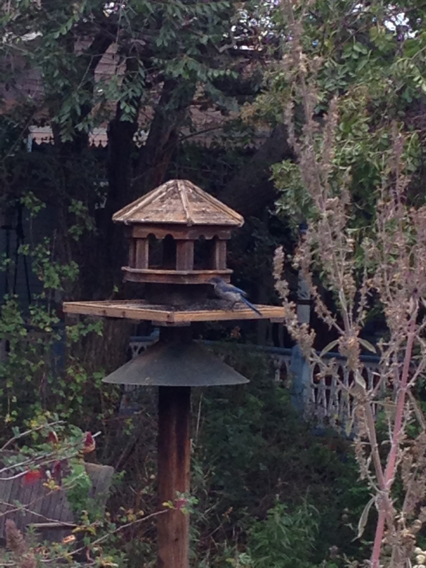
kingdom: Animalia
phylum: Chordata
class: Aves
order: Passeriformes
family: Corvidae
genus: Aphelocoma
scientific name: Aphelocoma californica
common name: California scrub-jay
